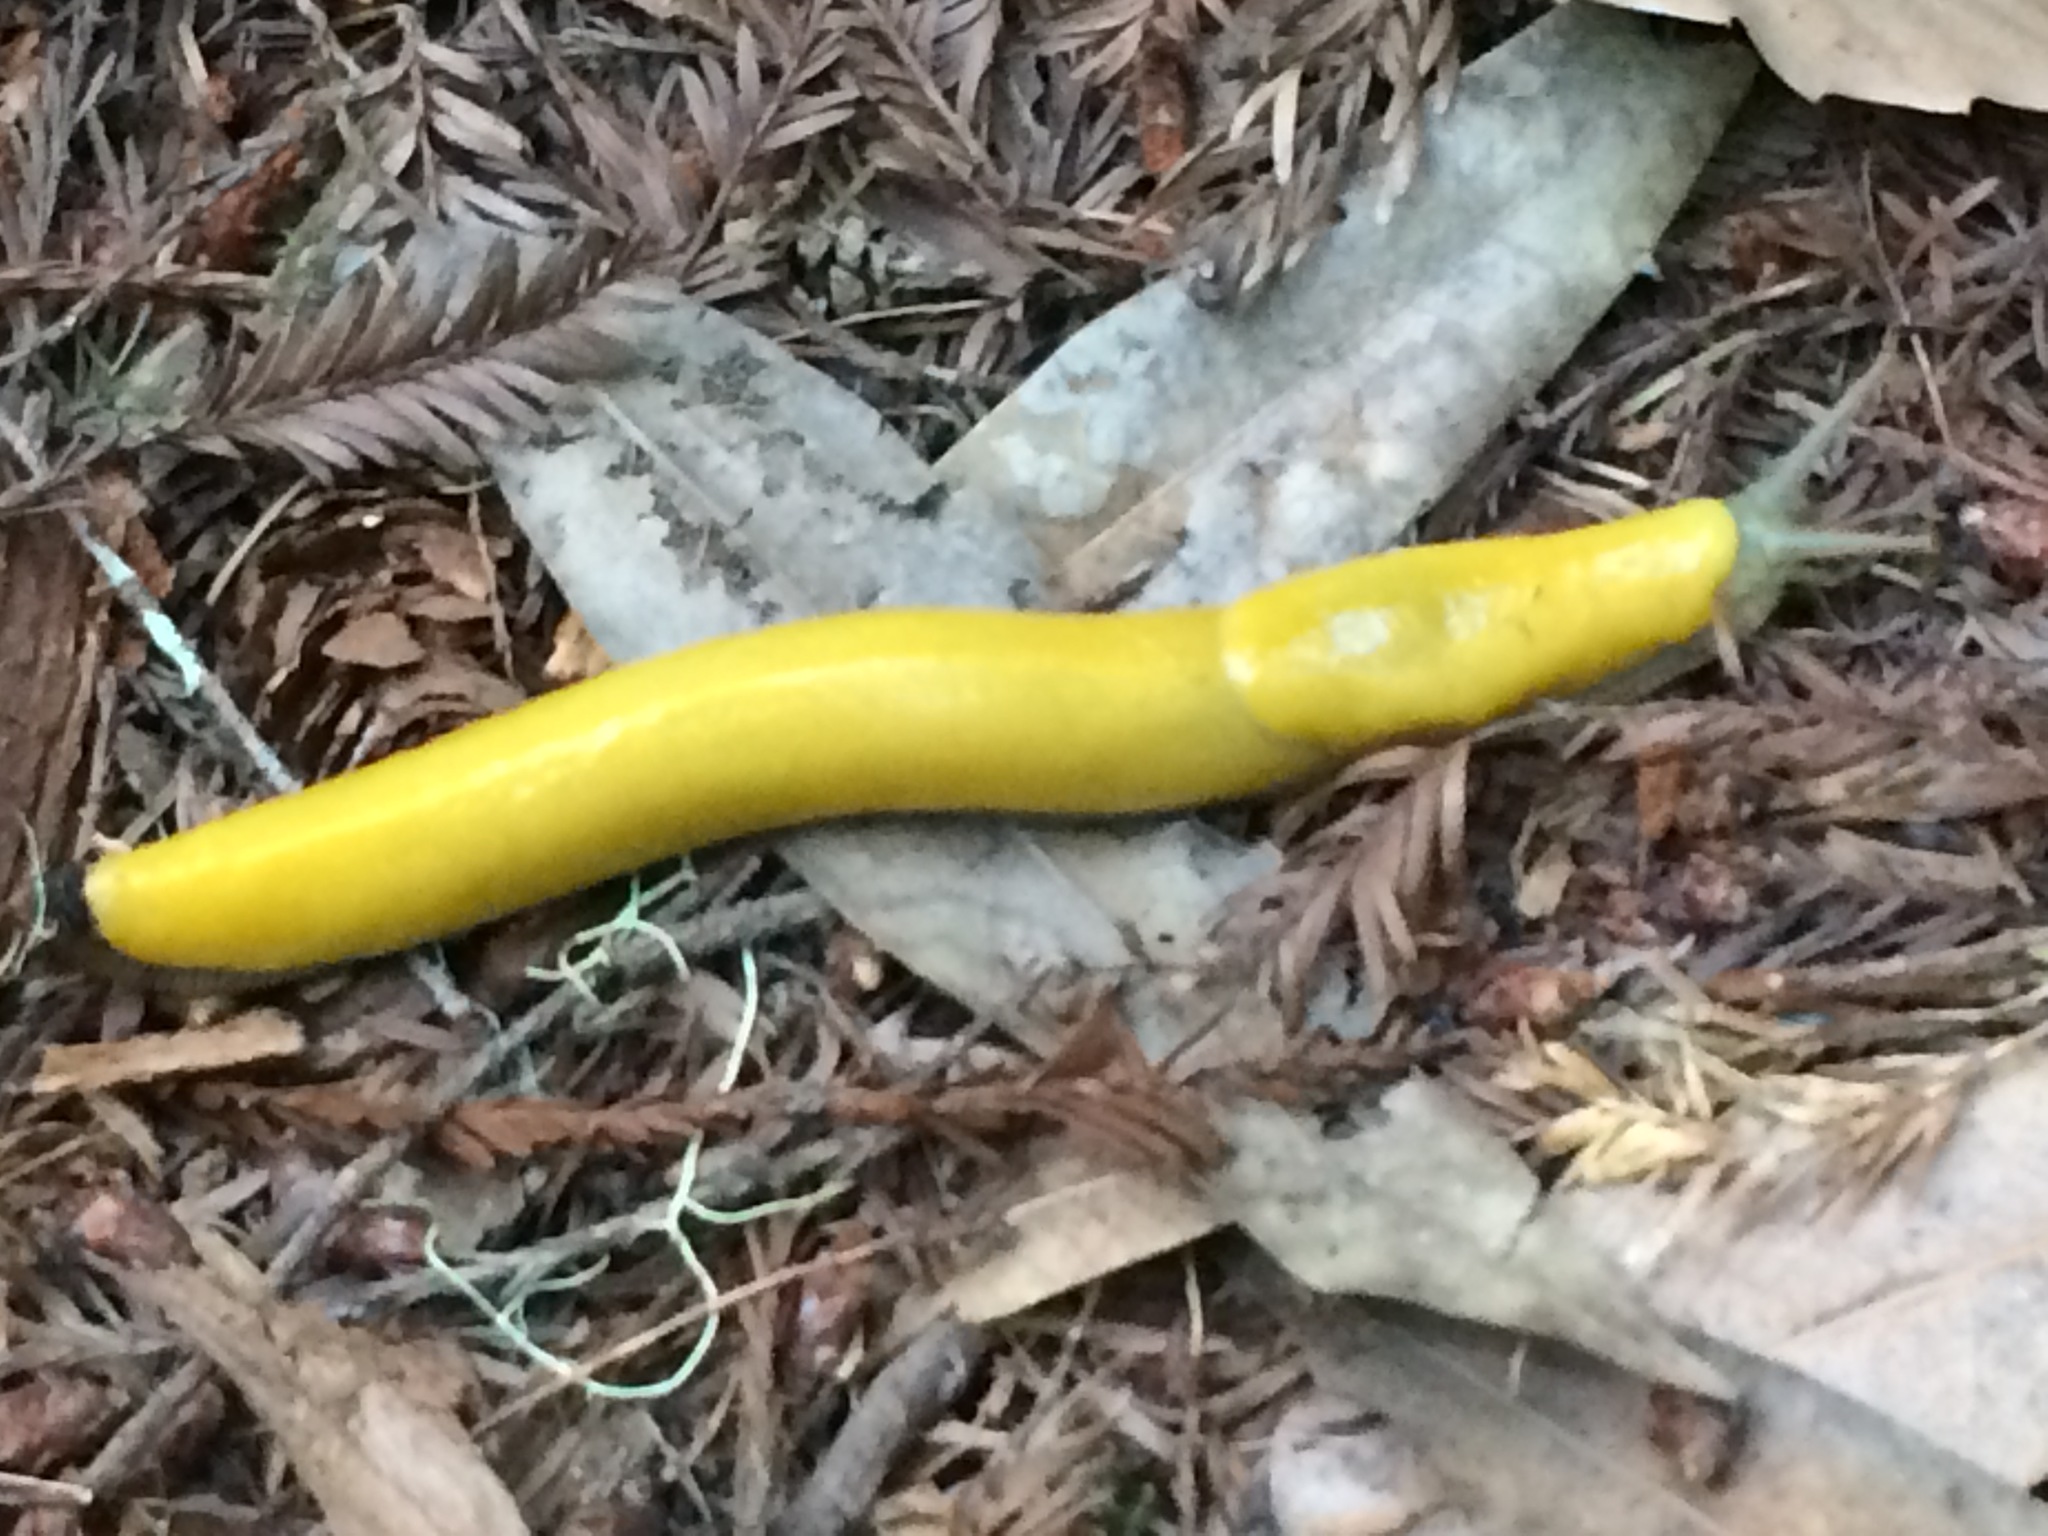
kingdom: Animalia
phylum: Mollusca
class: Gastropoda
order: Stylommatophora
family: Ariolimacidae
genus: Ariolimax
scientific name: Ariolimax dolichophallus
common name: Slender banana slug
